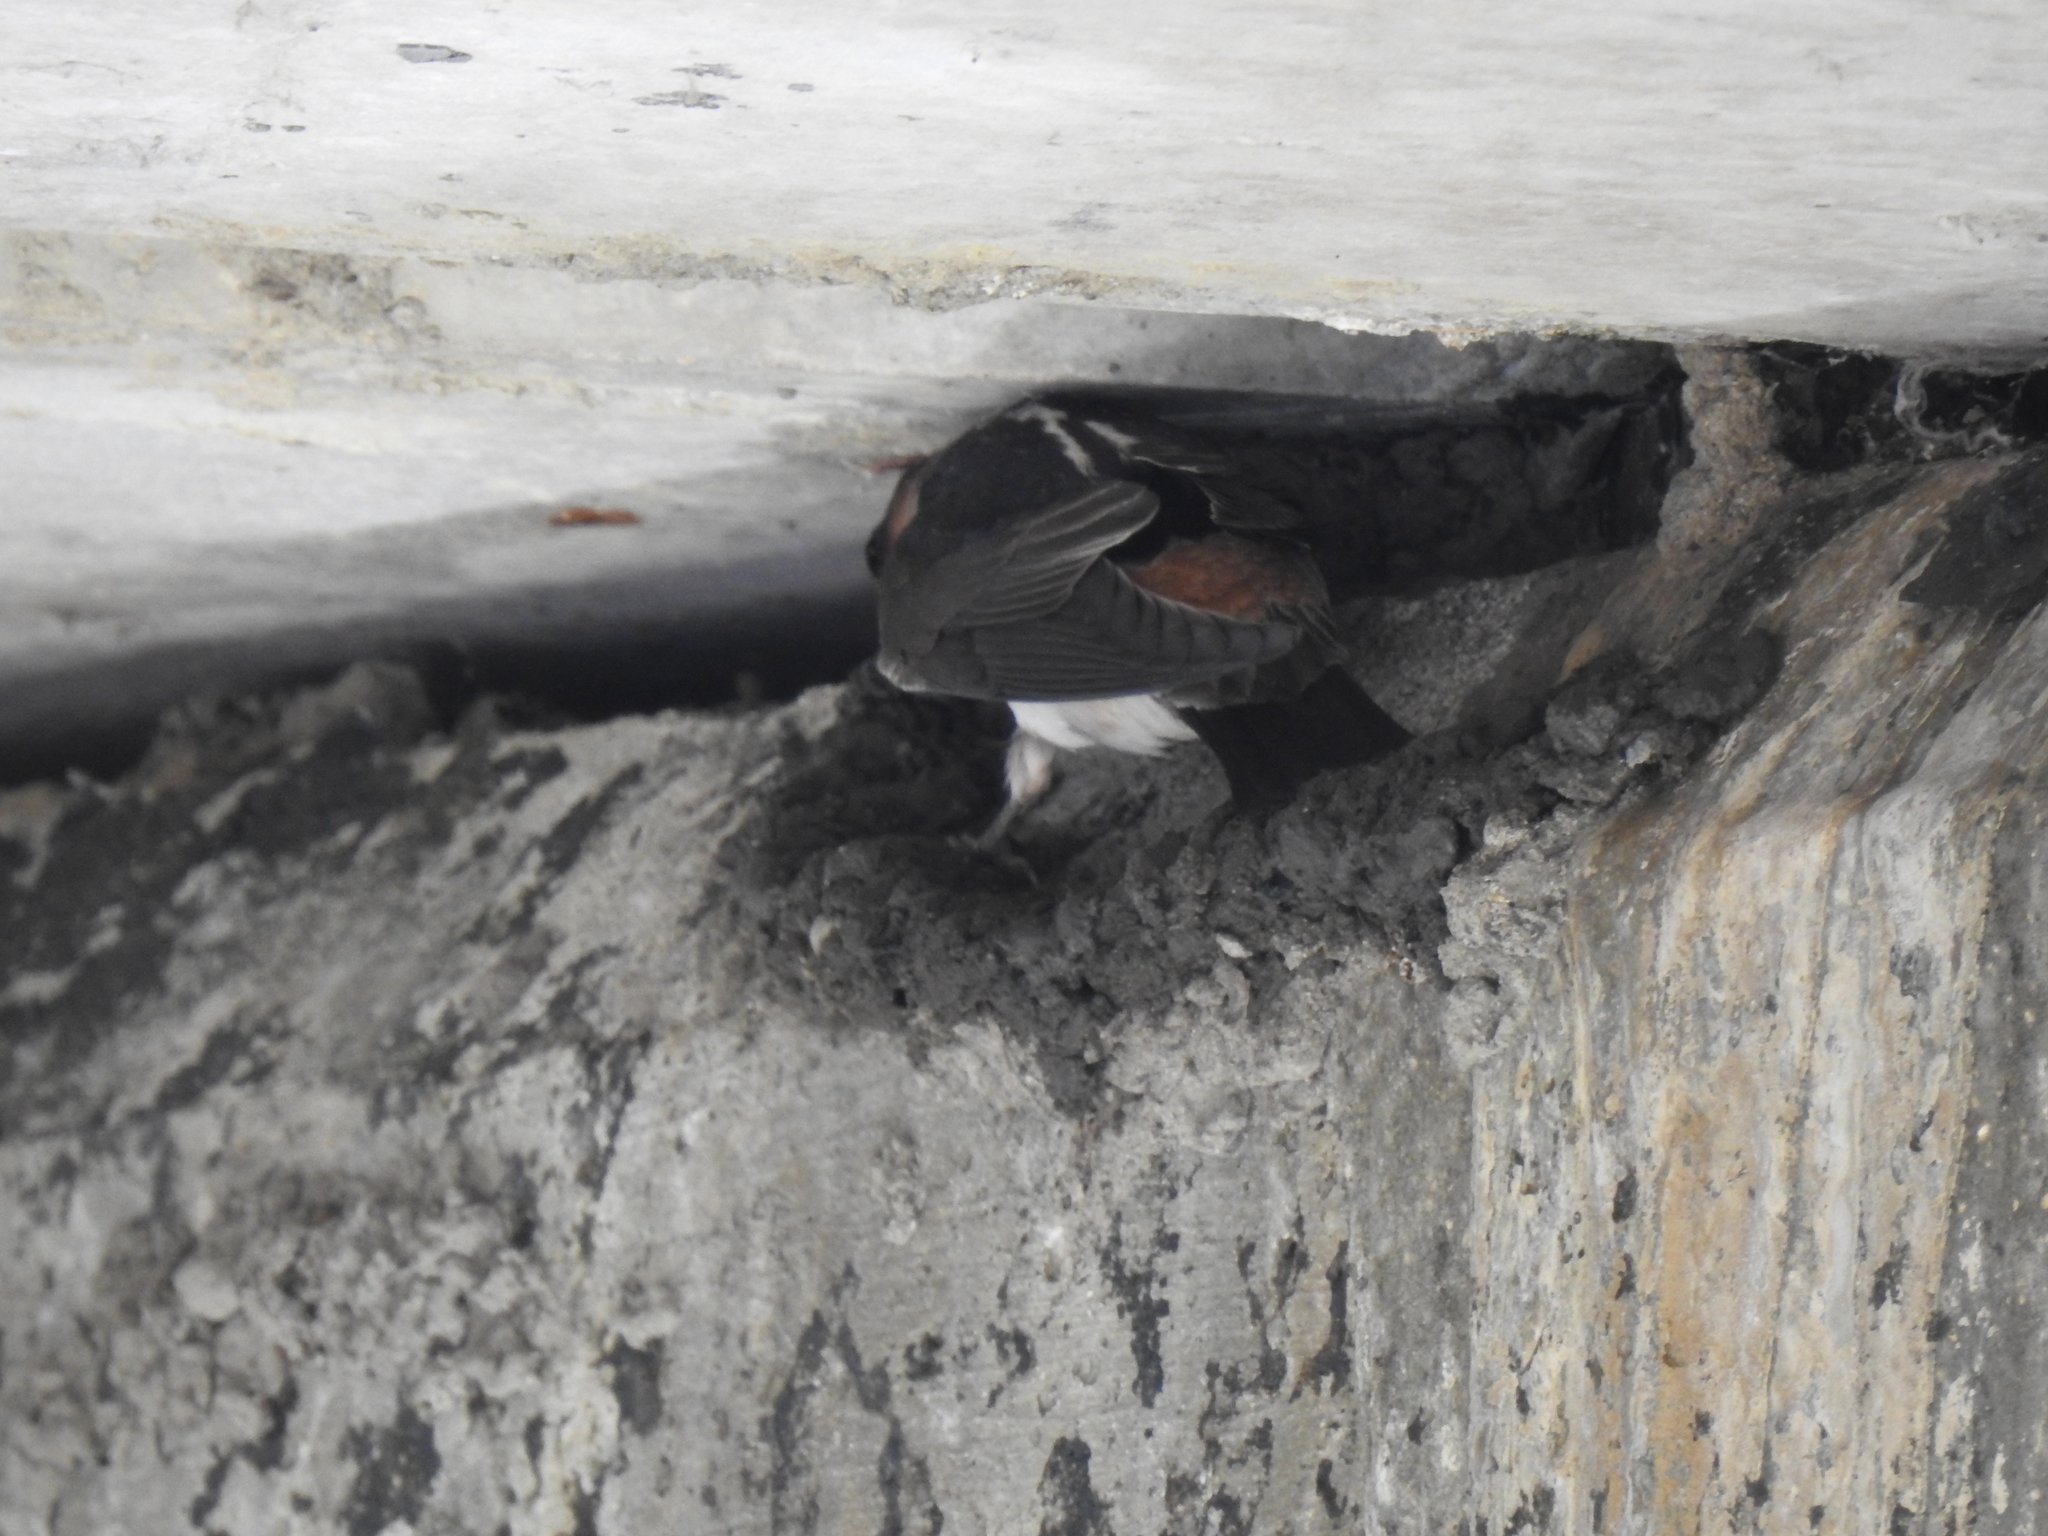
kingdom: Animalia
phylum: Chordata
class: Aves
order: Passeriformes
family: Hirundinidae
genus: Petrochelidon
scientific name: Petrochelidon pyrrhonota
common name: American cliff swallow
